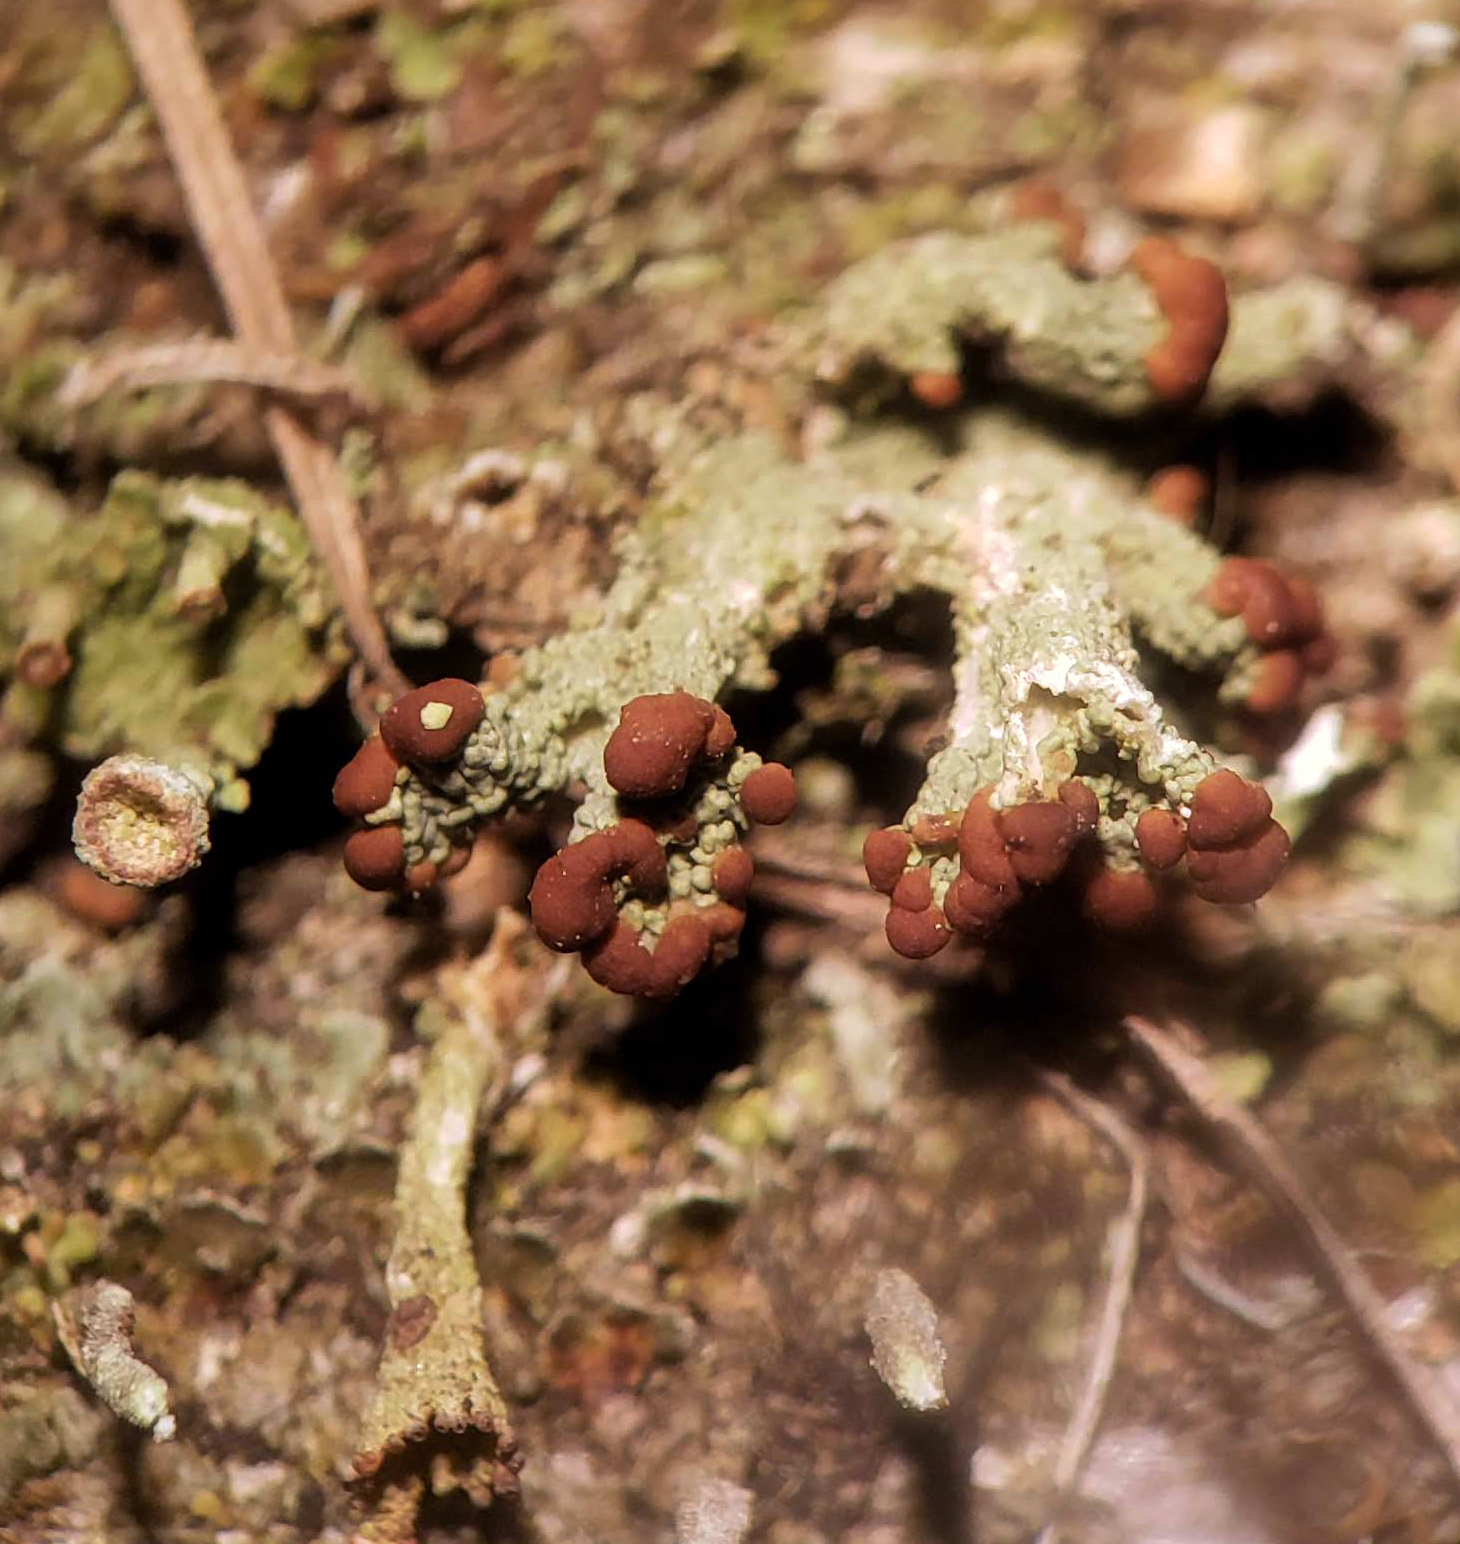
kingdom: Fungi
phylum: Ascomycota
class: Lecanoromycetes
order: Lecanorales
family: Cladoniaceae
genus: Cladonia
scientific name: Cladonia cariosa
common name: Split-peg lichen
